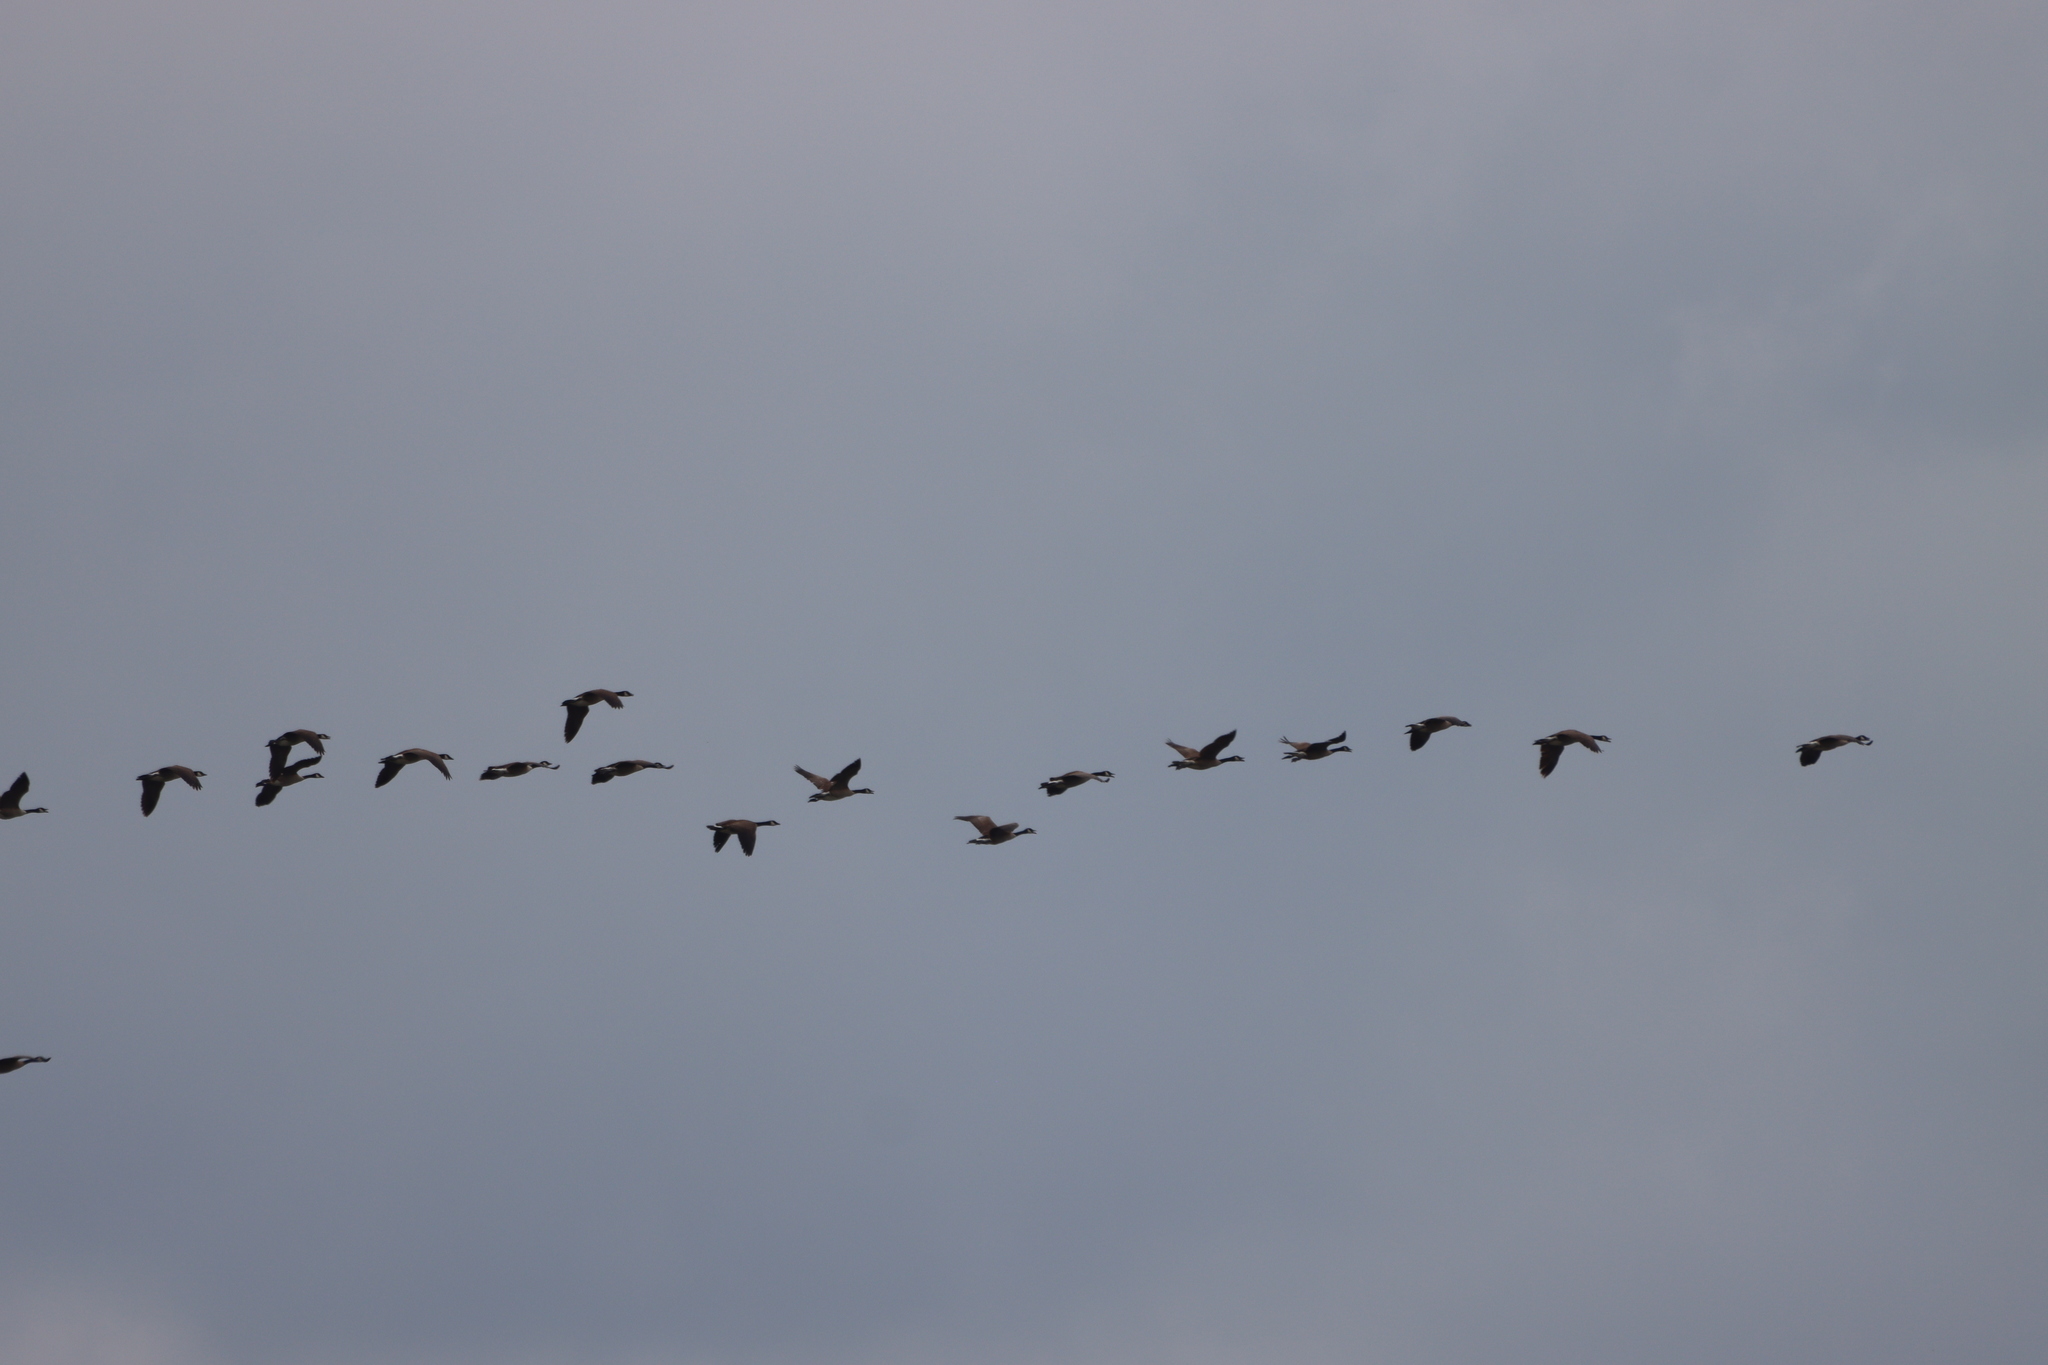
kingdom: Animalia
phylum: Chordata
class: Aves
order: Anseriformes
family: Anatidae
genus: Branta
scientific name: Branta canadensis
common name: Canada goose
